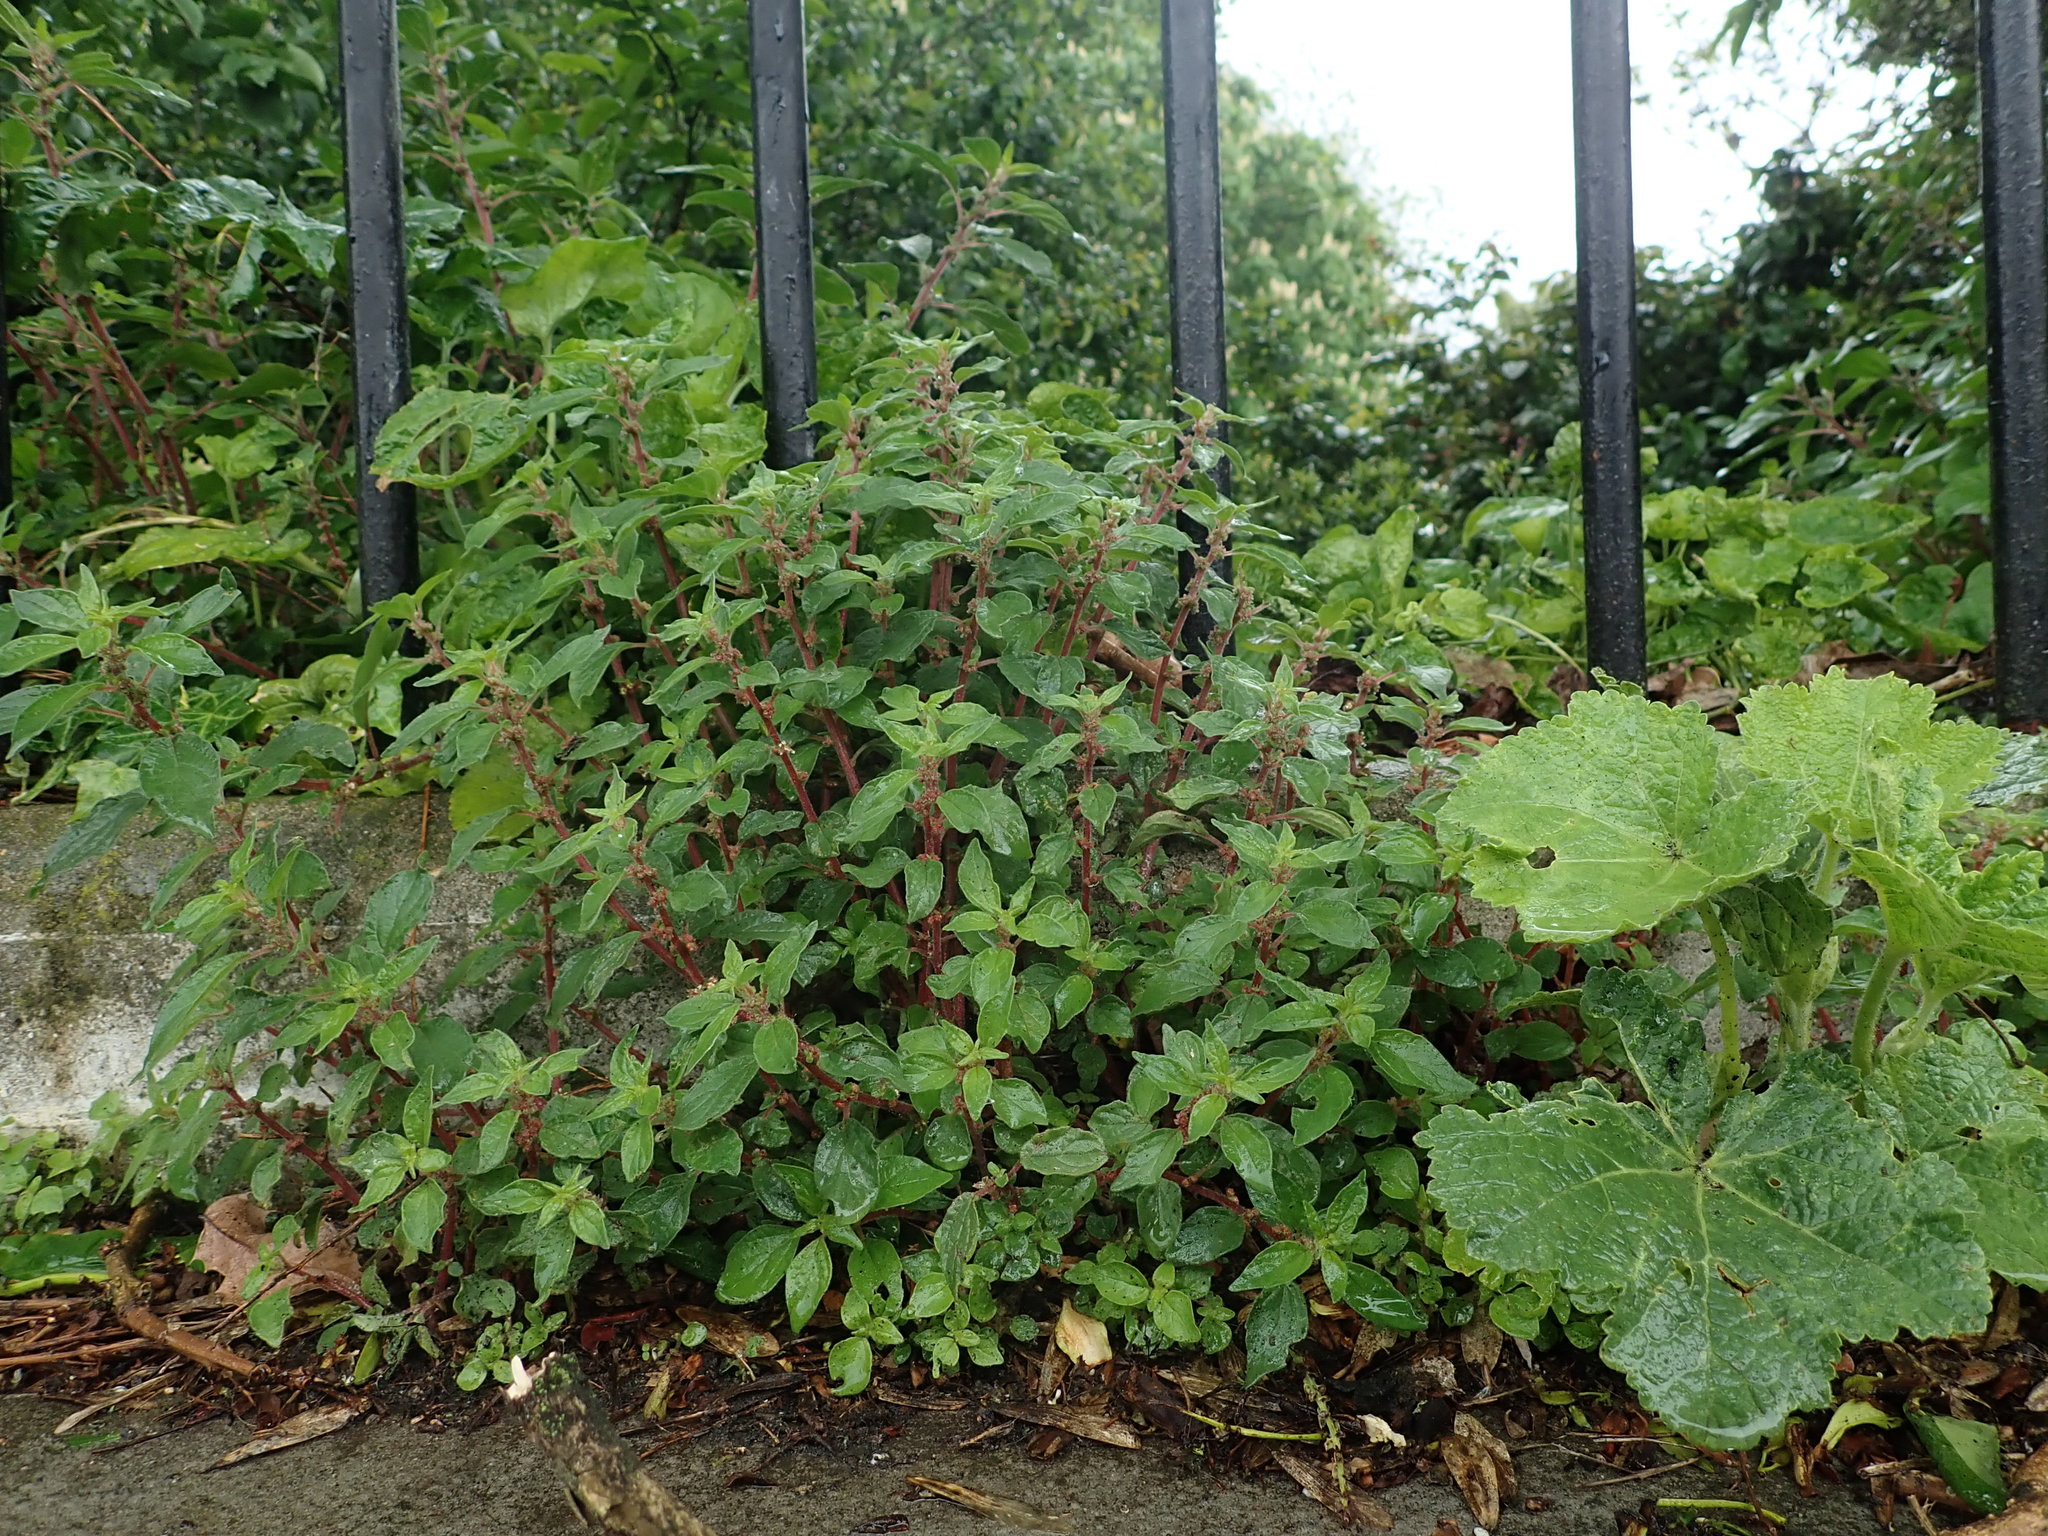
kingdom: Plantae
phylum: Tracheophyta
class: Magnoliopsida
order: Rosales
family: Urticaceae
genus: Parietaria
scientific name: Parietaria judaica
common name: Pellitory-of-the-wall
